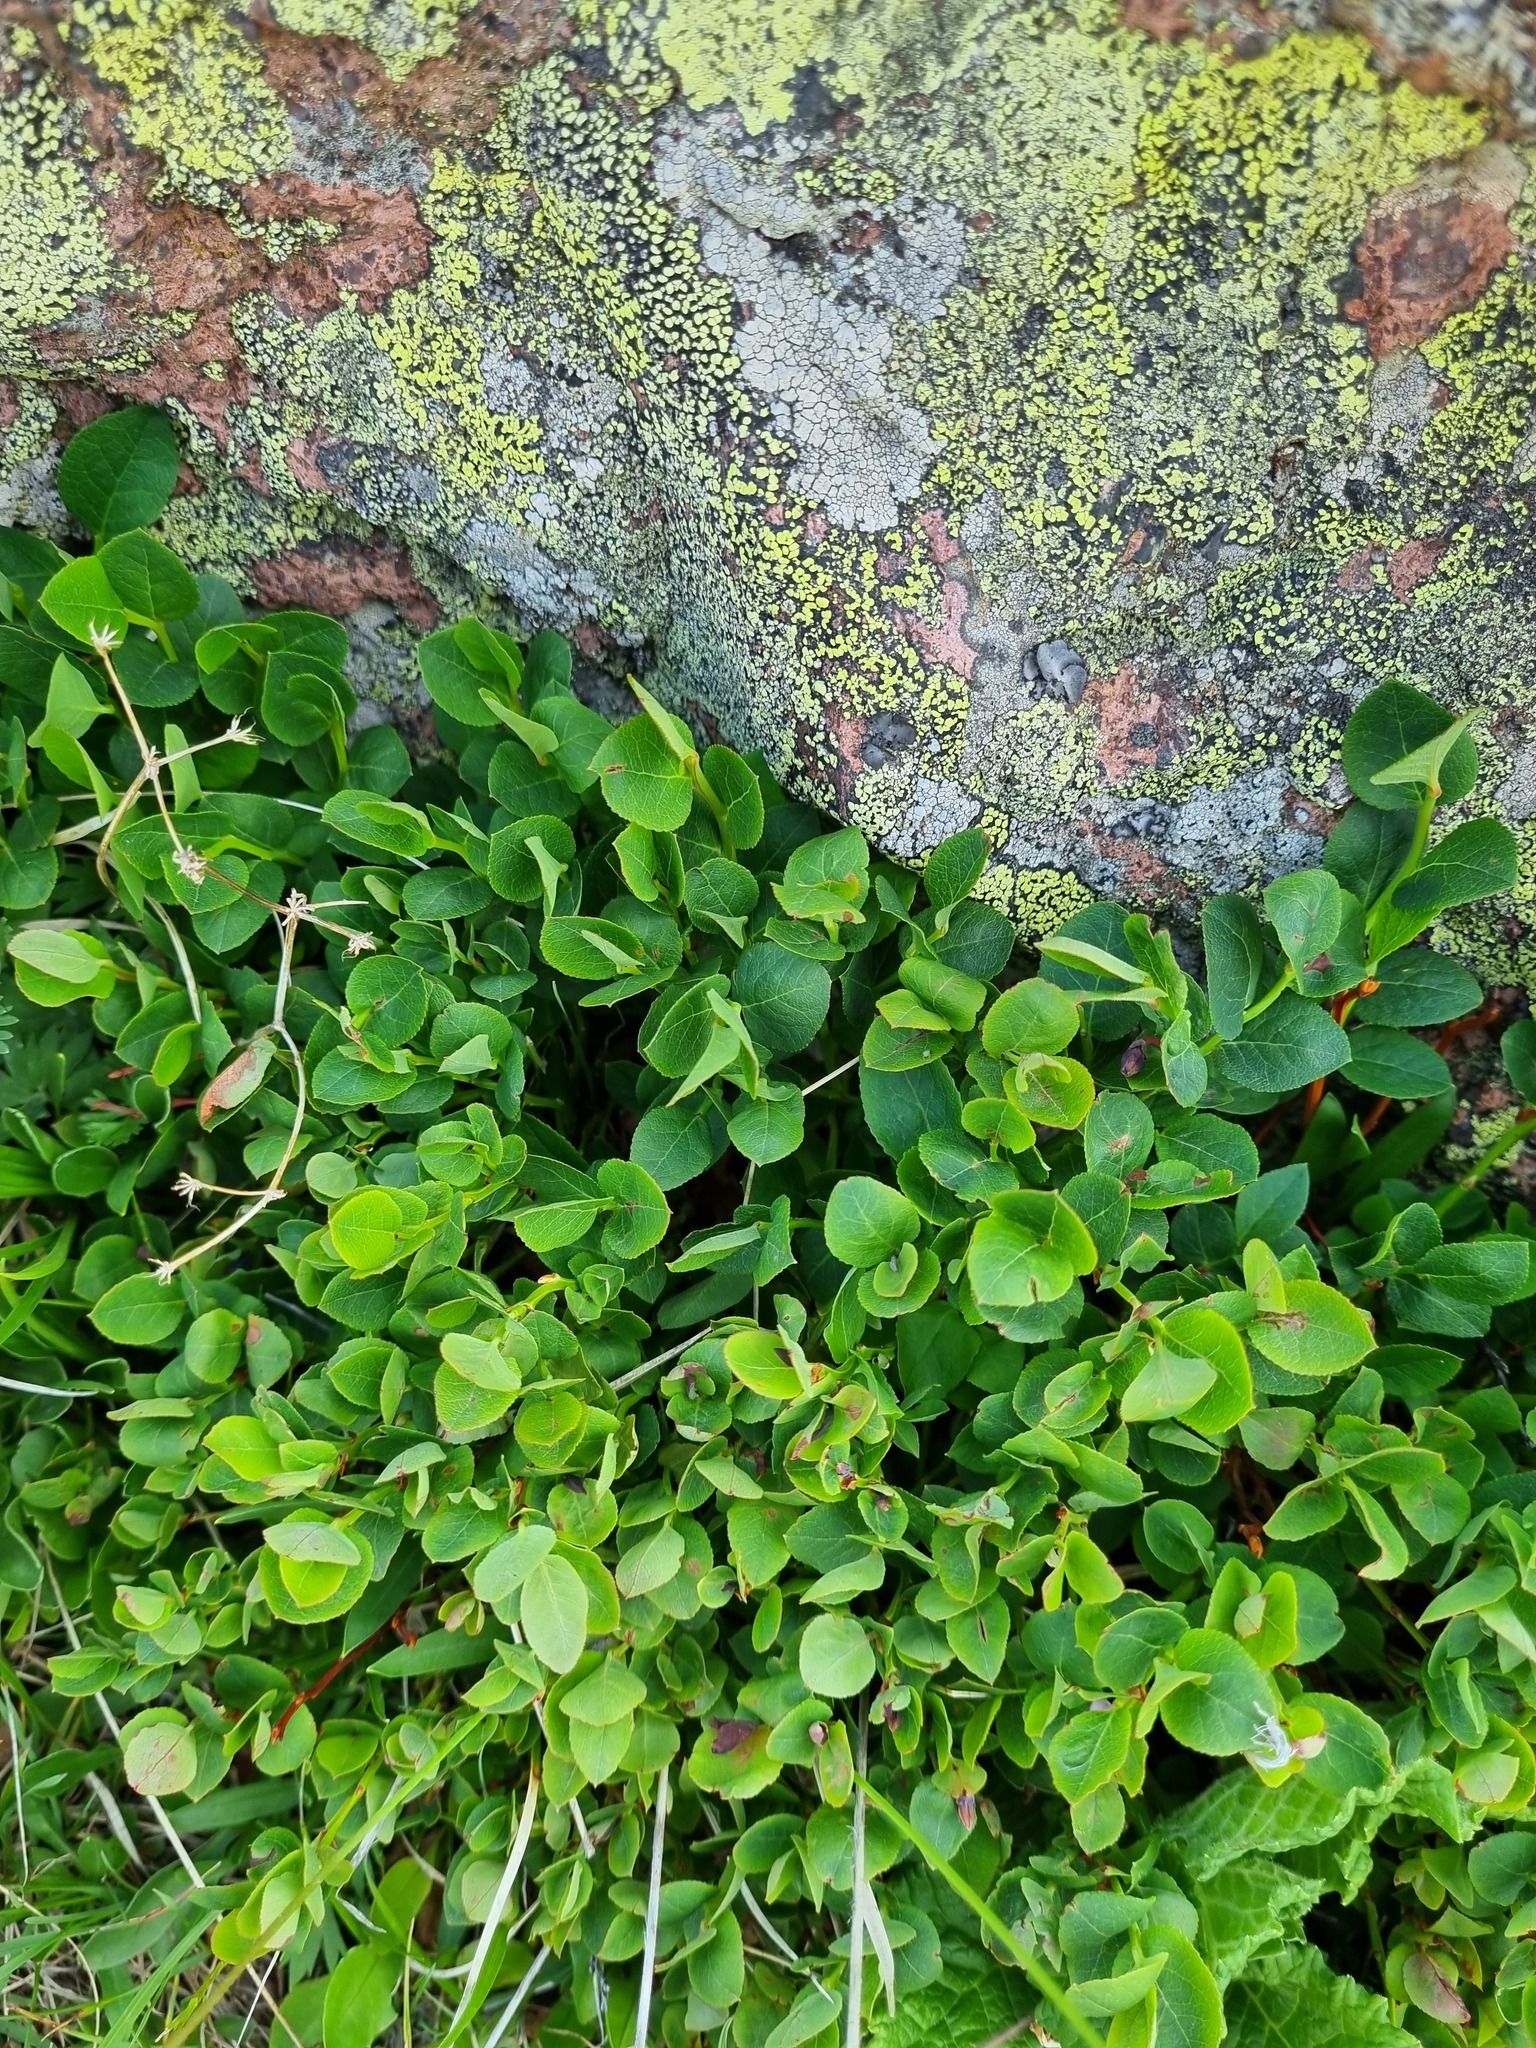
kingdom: Plantae
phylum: Tracheophyta
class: Magnoliopsida
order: Ericales
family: Ericaceae
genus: Vaccinium
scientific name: Vaccinium myrtillus
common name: Bilberry
